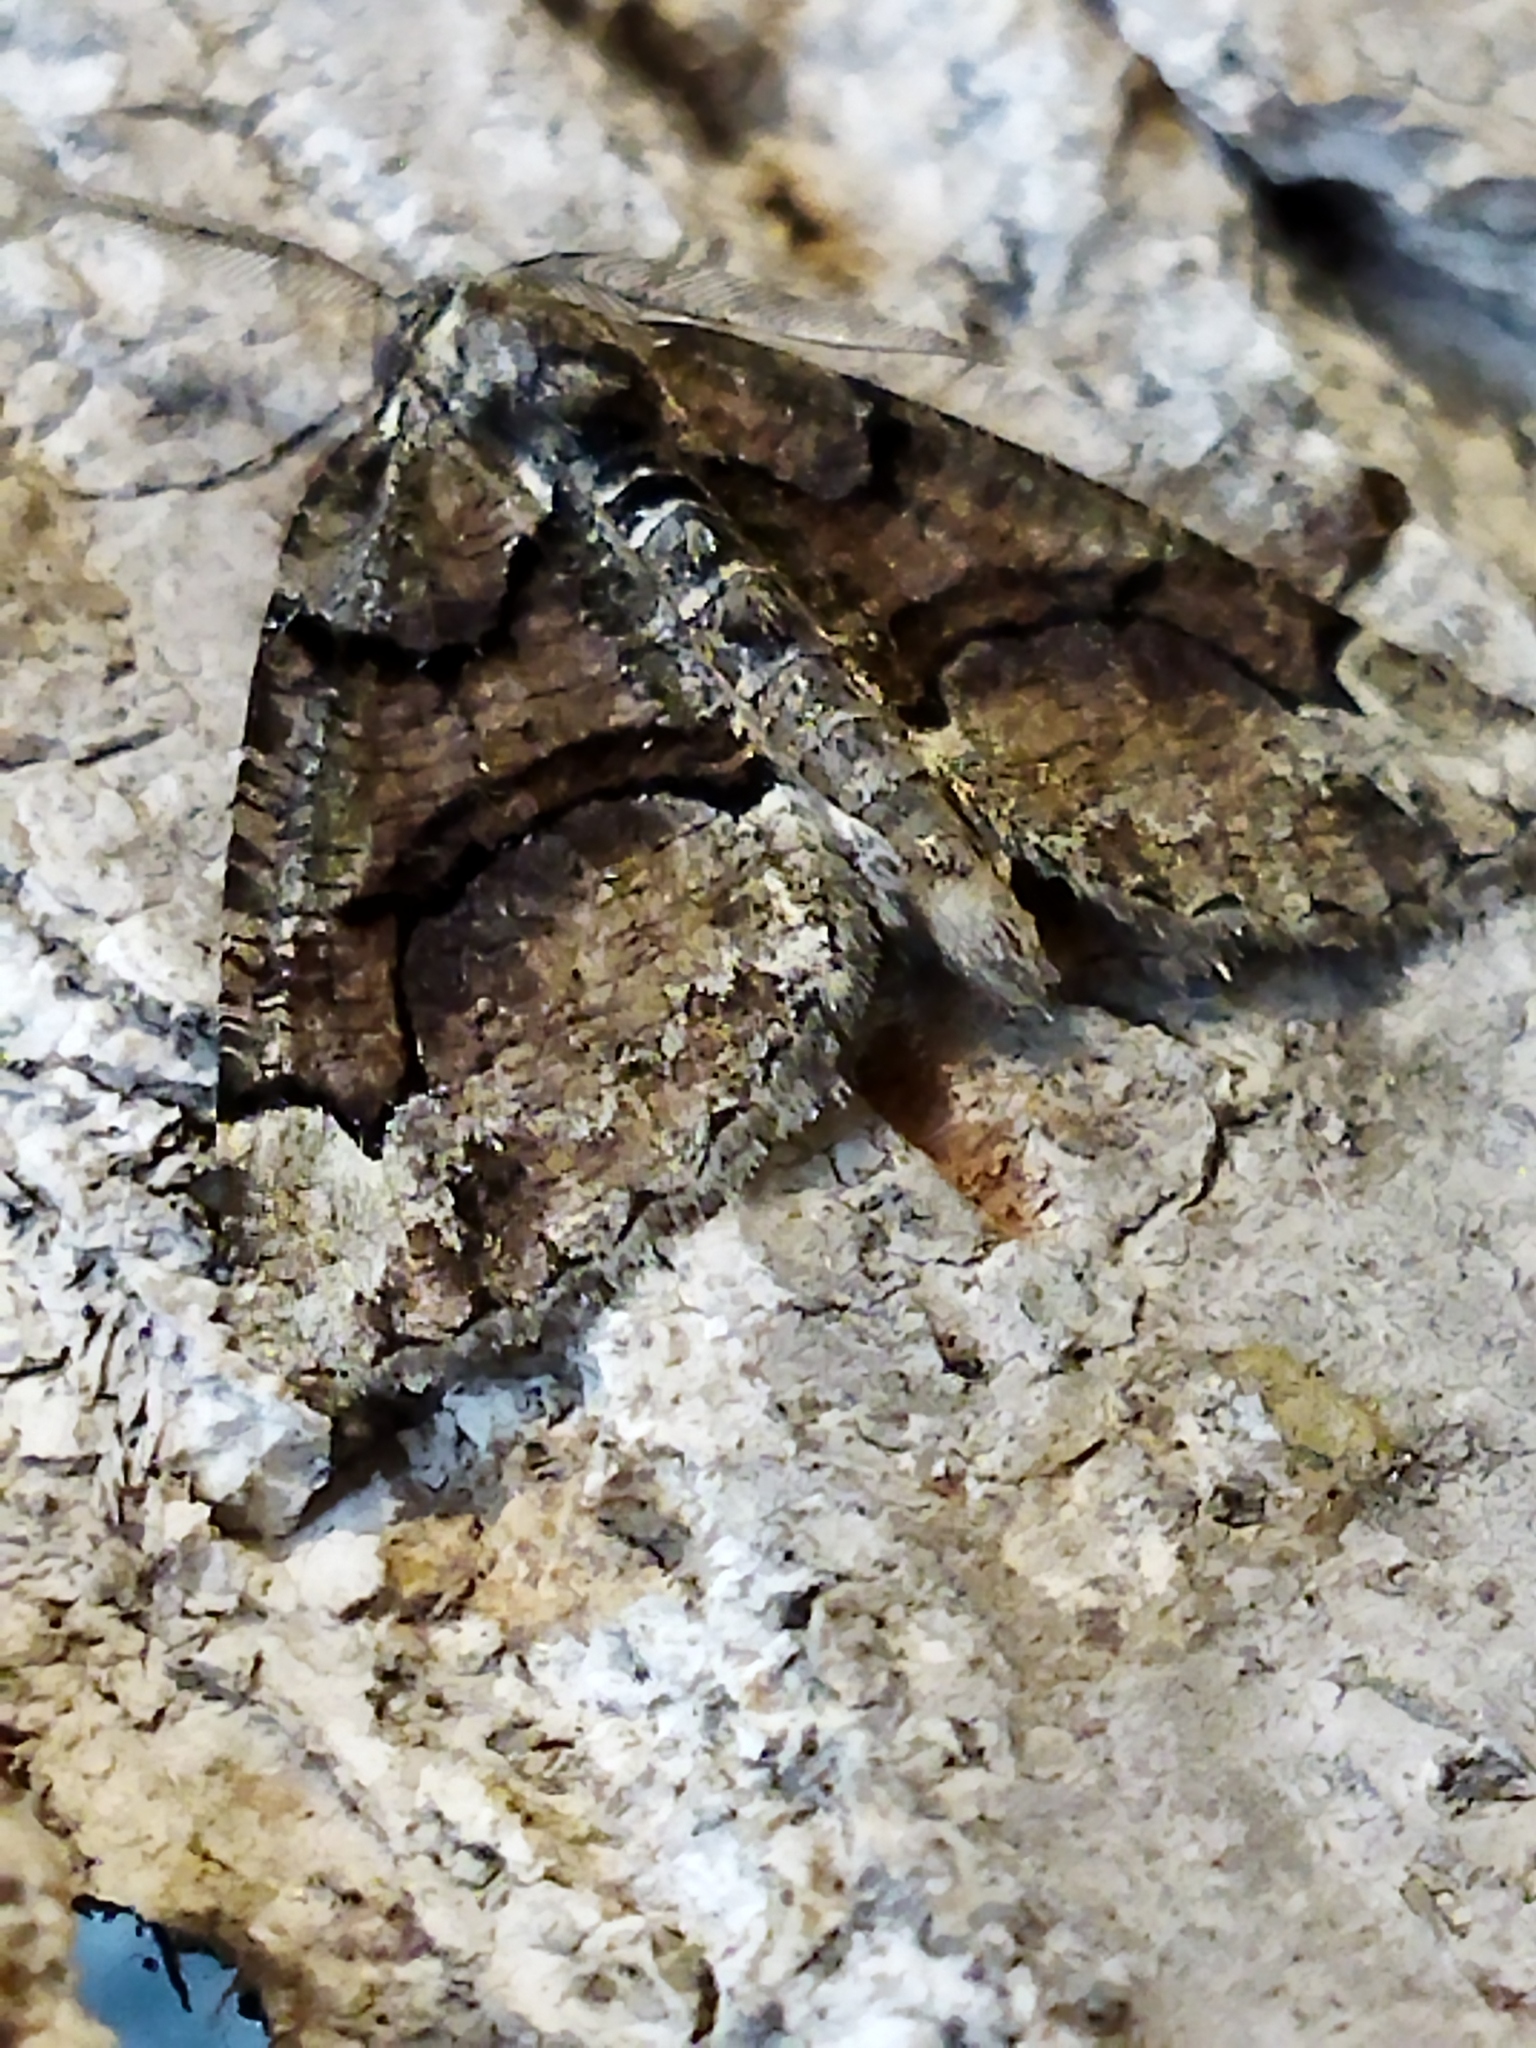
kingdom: Animalia
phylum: Arthropoda
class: Insecta
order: Lepidoptera
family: Geometridae
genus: Asovia
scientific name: Asovia maeoticaria
